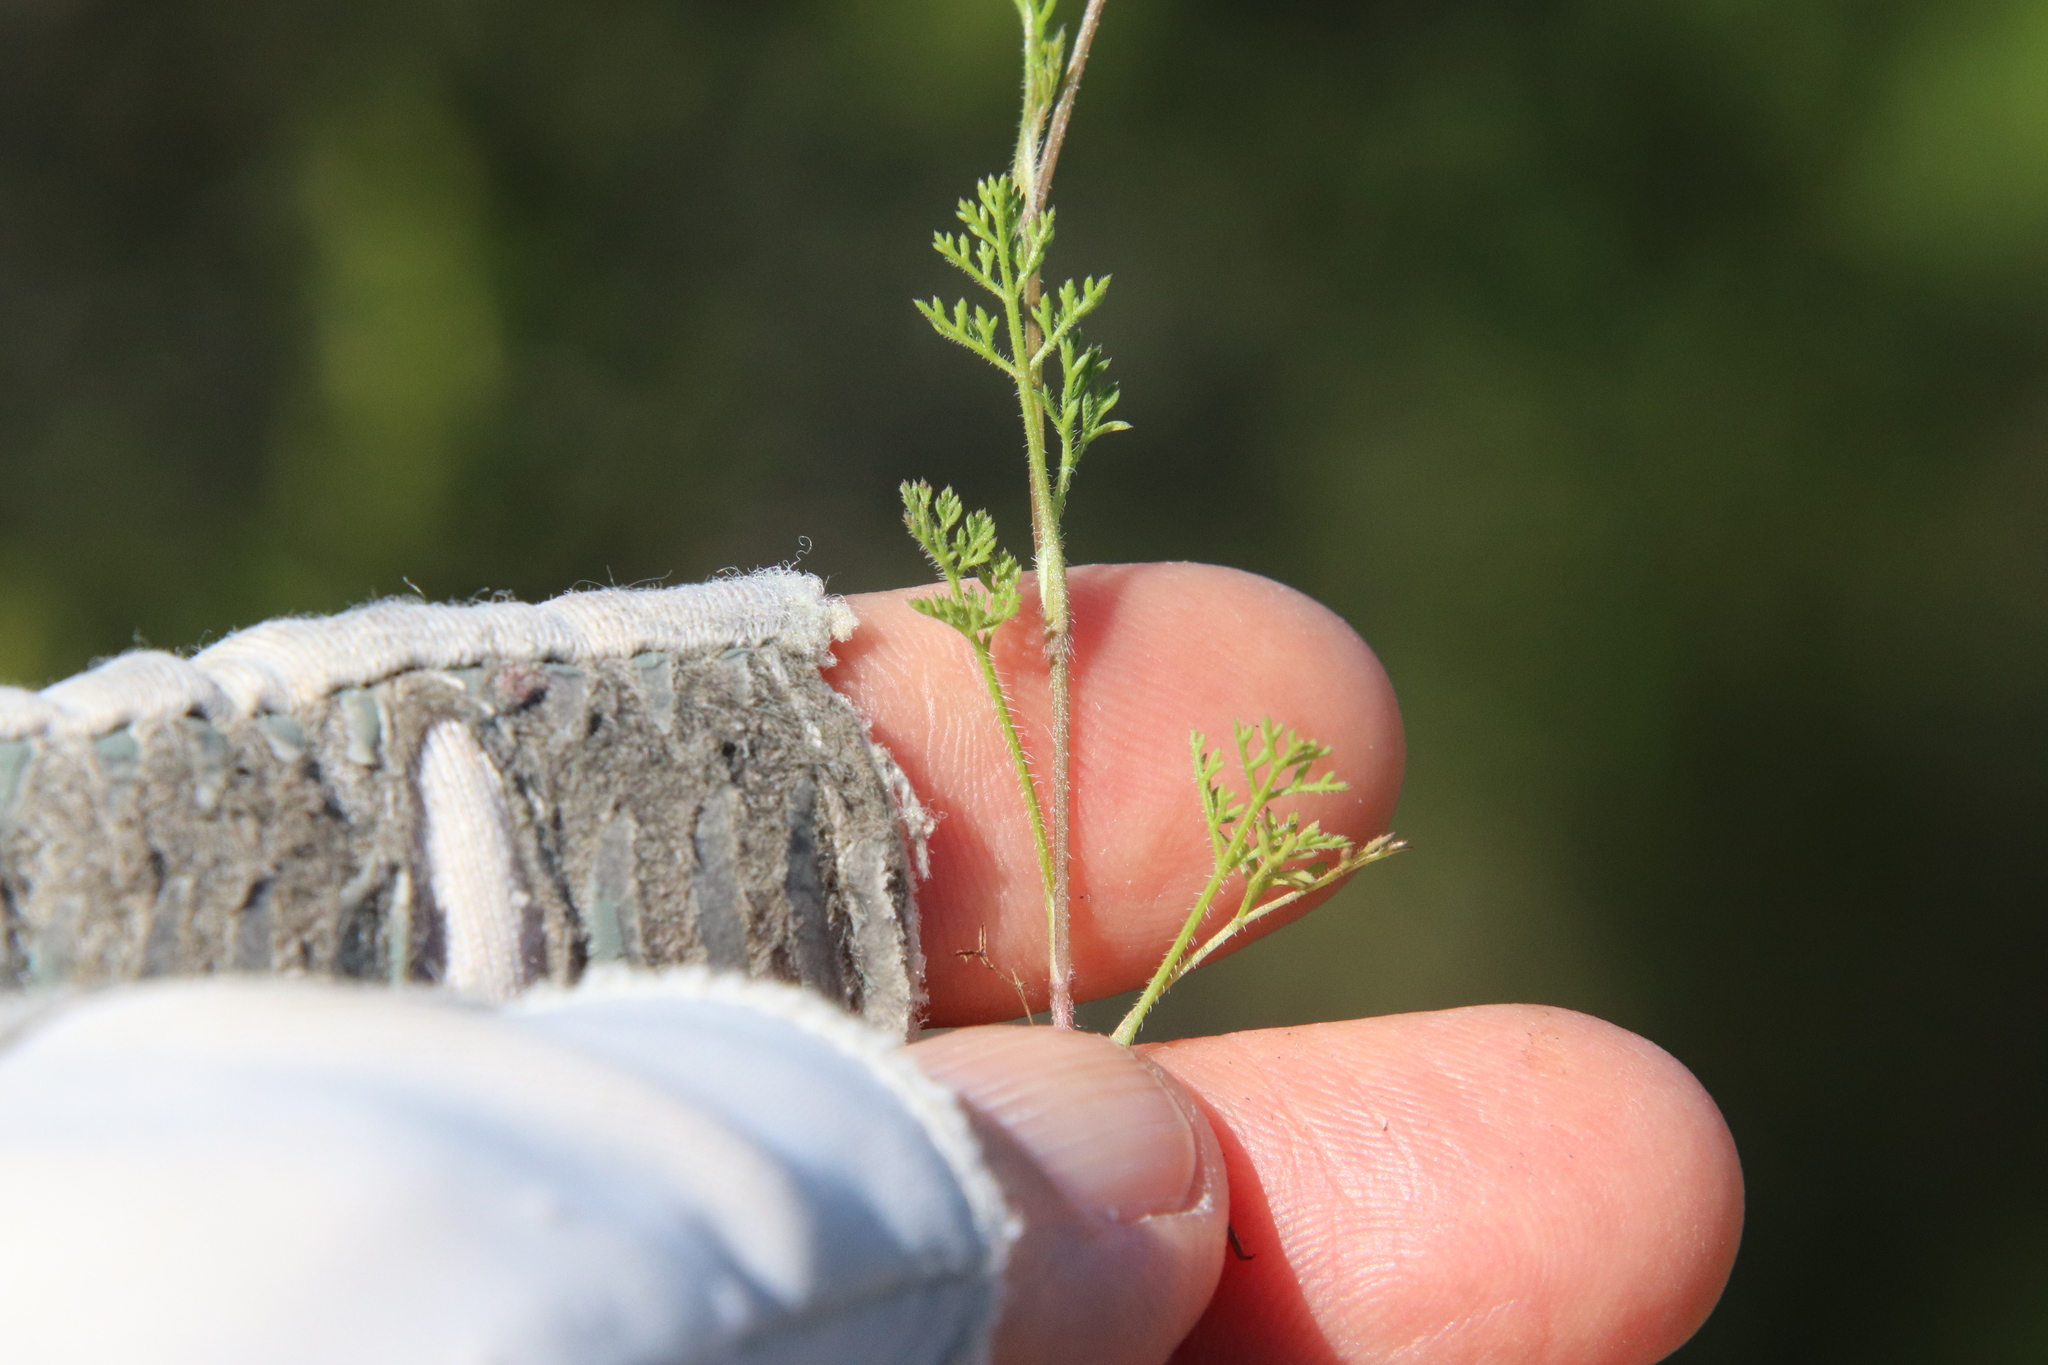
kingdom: Plantae
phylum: Tracheophyta
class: Magnoliopsida
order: Apiales
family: Apiaceae
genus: Daucus
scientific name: Daucus pusillus
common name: Southwest wild carrot
